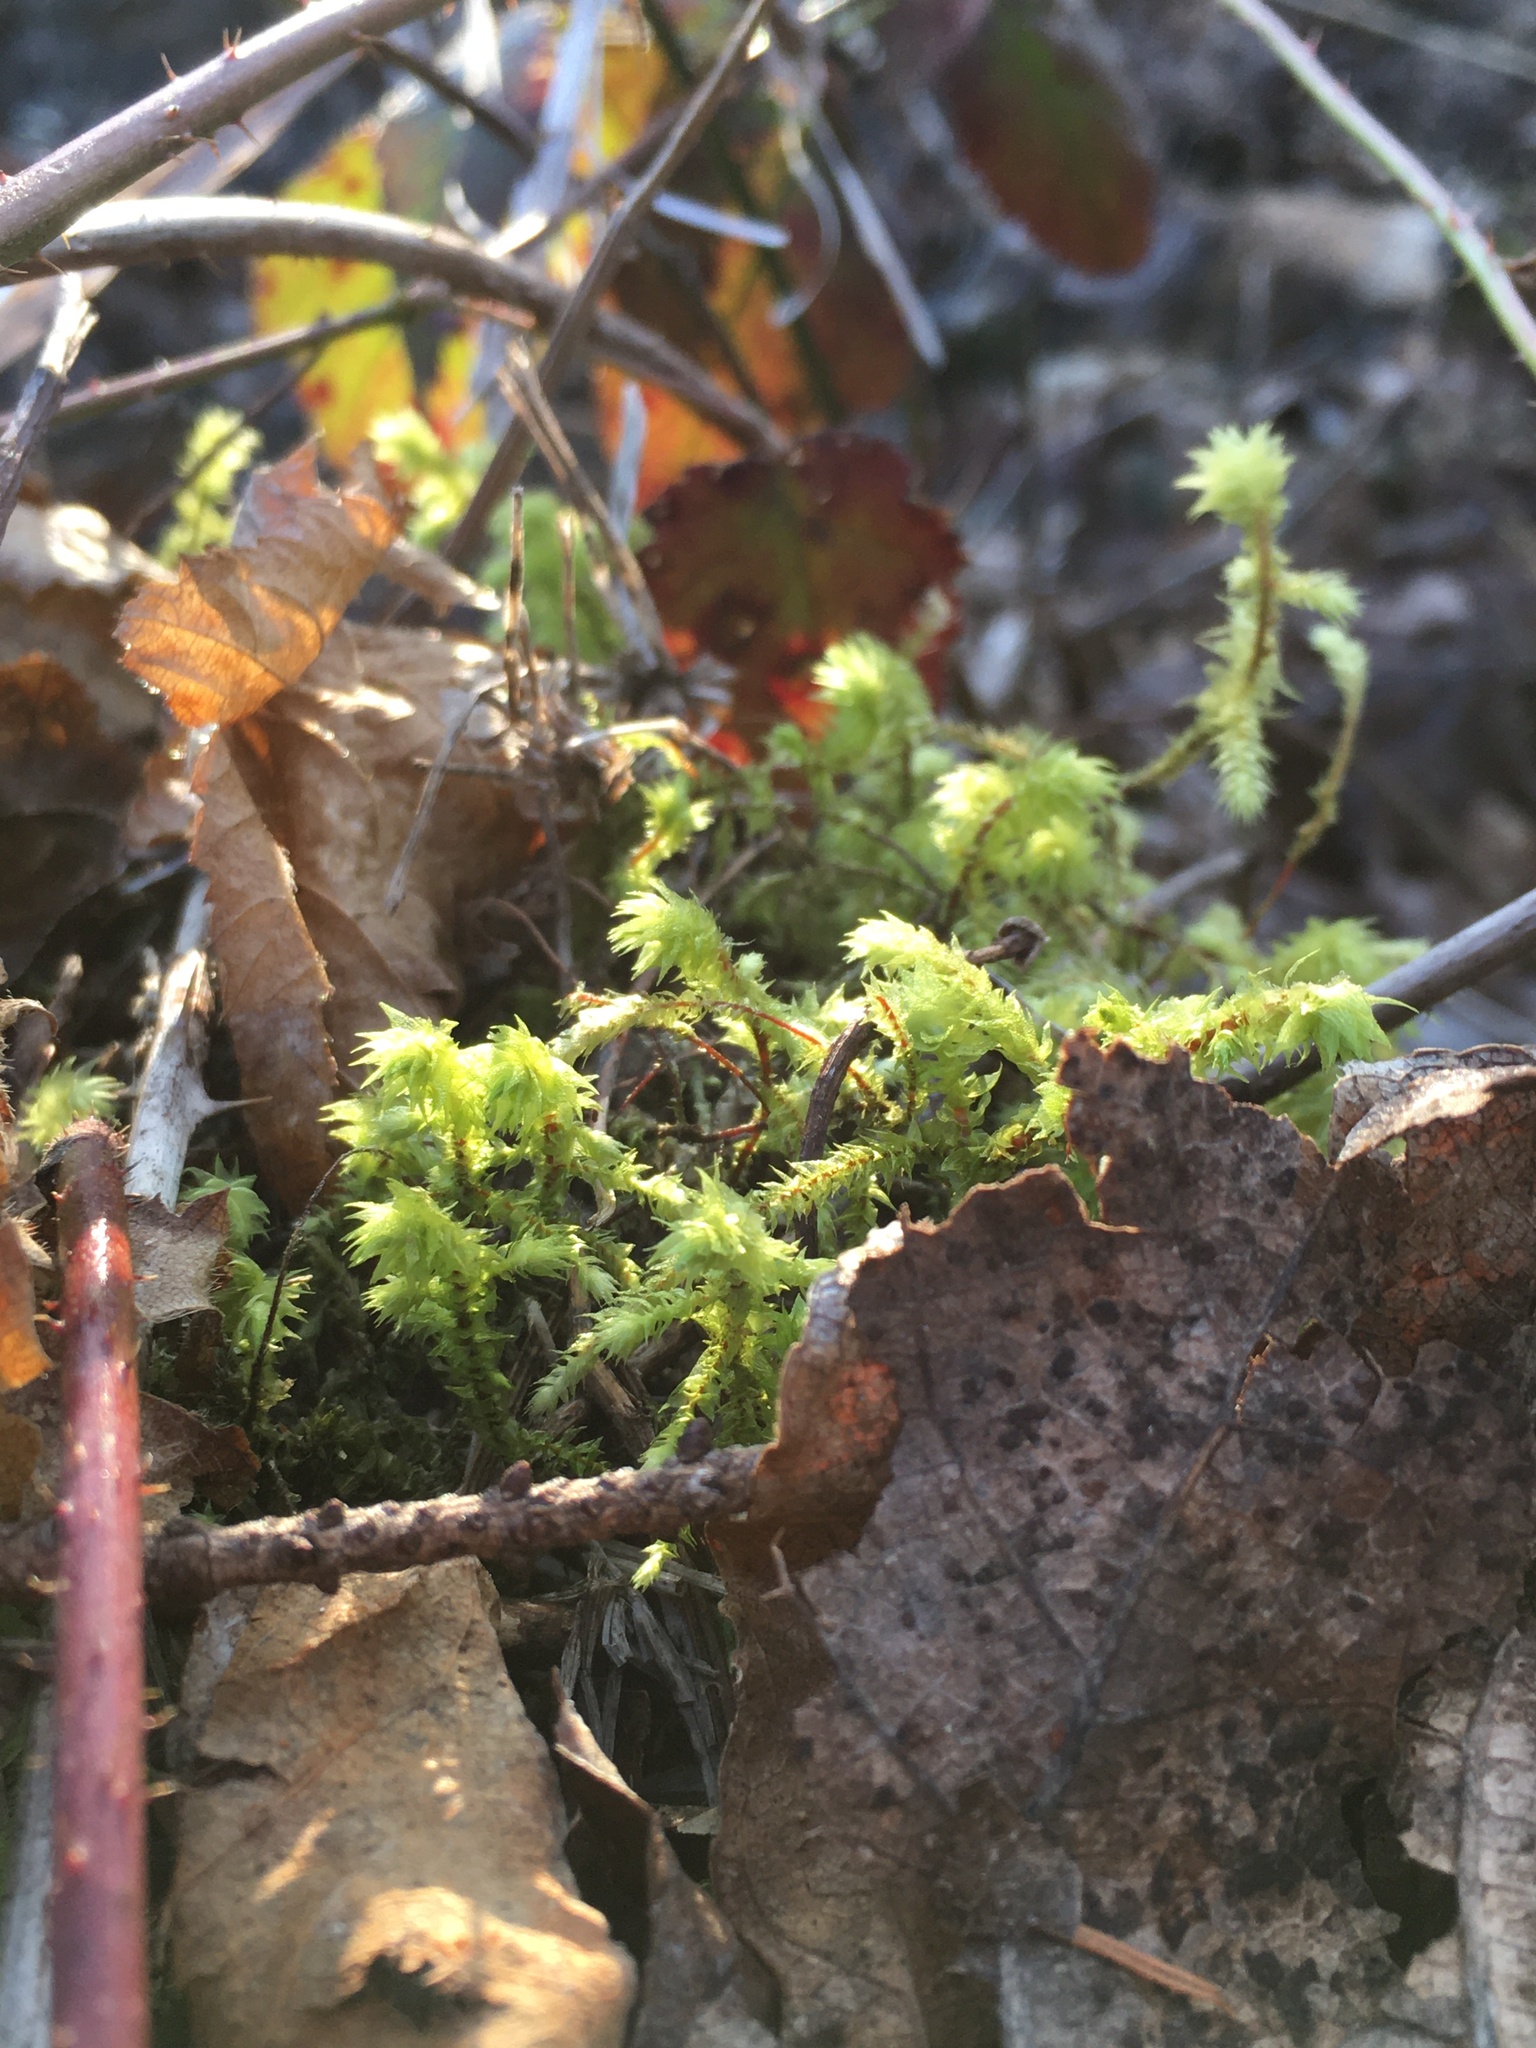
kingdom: Plantae
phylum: Bryophyta
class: Bryopsida
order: Hypnales
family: Hylocomiaceae
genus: Hylocomiadelphus
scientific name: Hylocomiadelphus triquetrus
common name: Rough goose neck moss
